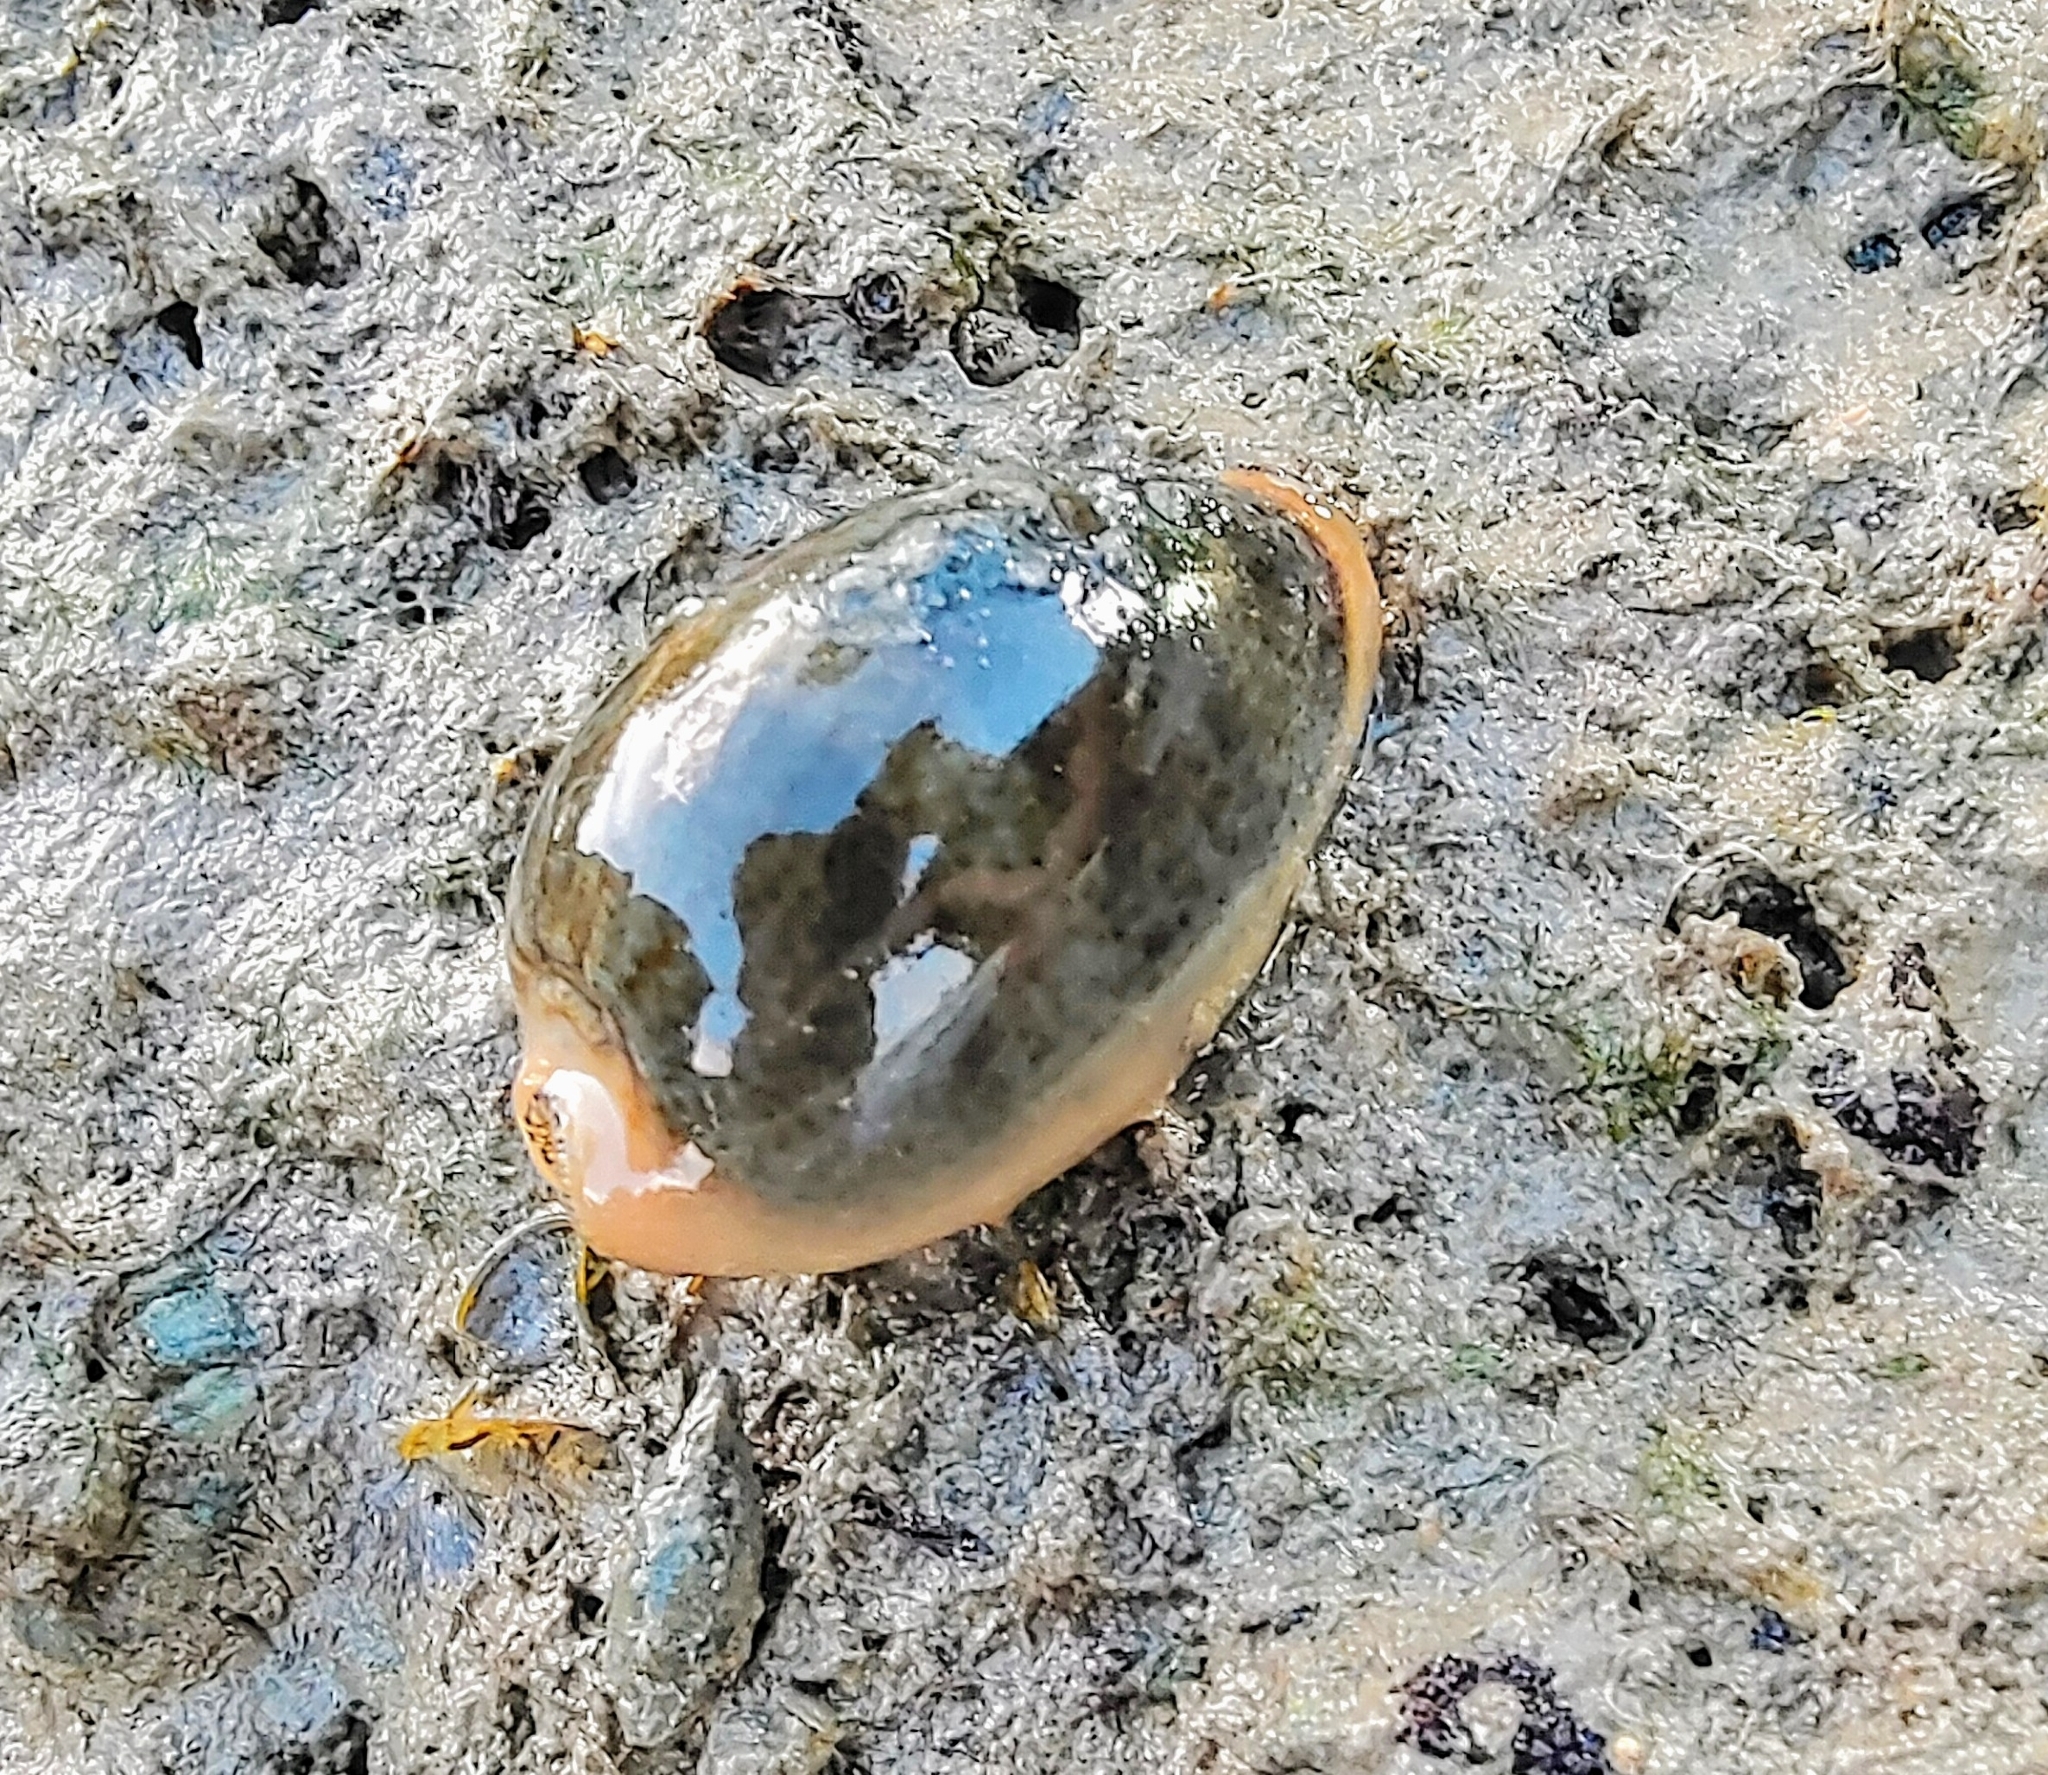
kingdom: Animalia
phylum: Mollusca
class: Gastropoda
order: Littorinimorpha
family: Cypraeidae
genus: Erronea
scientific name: Erronea ovum
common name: Egg cowrie
